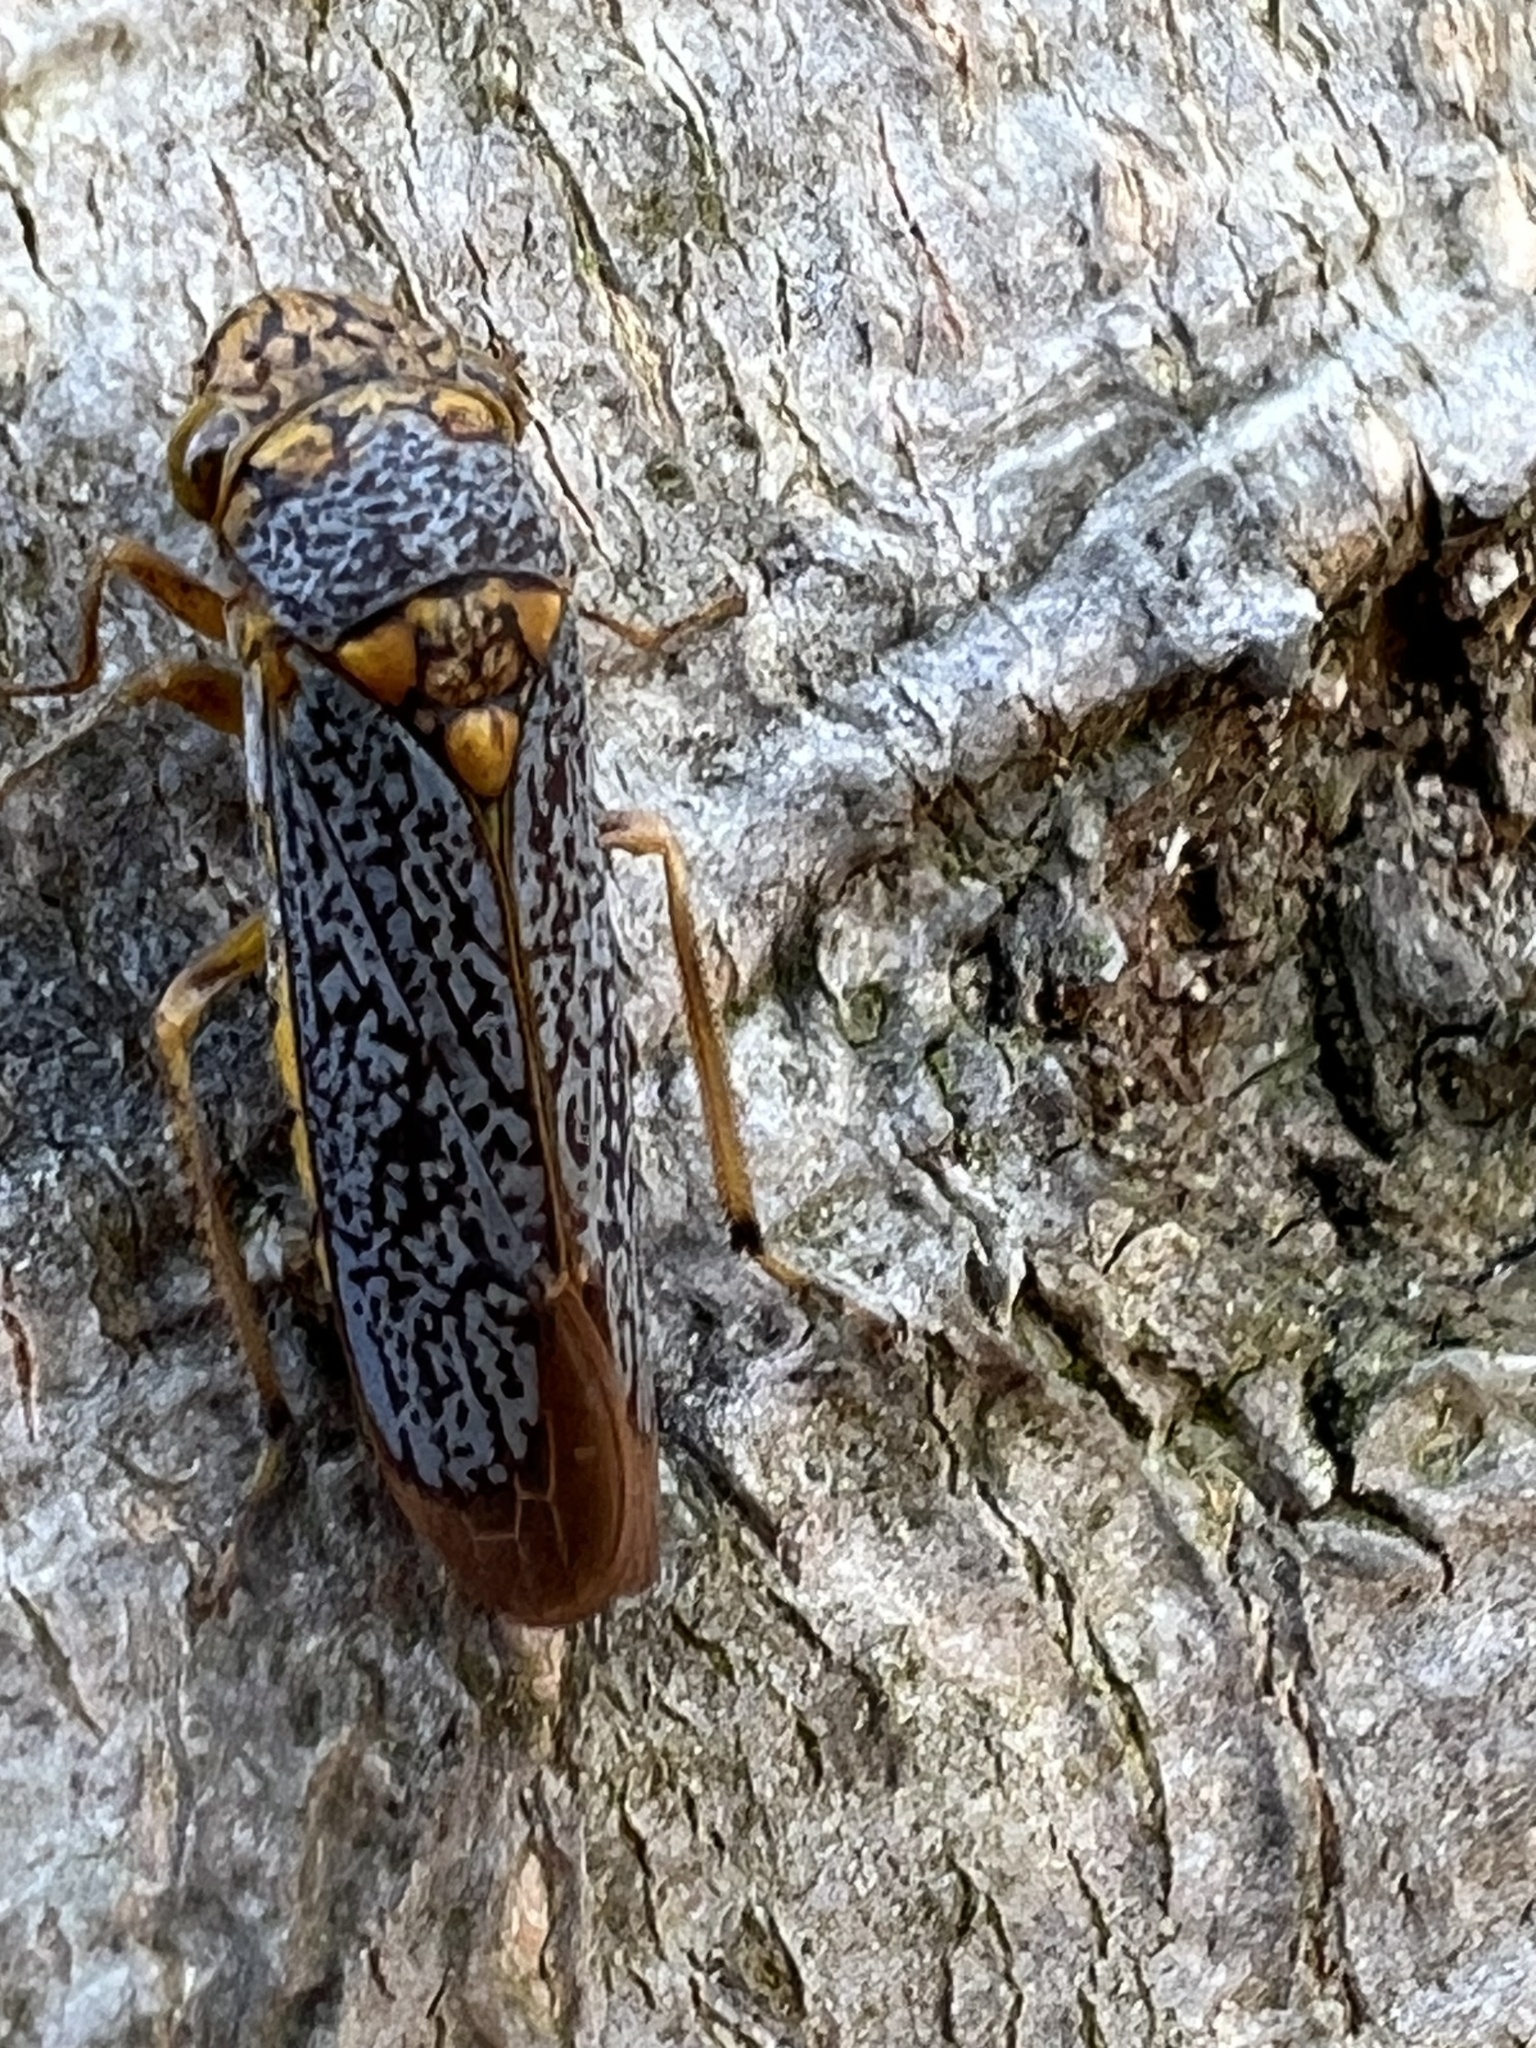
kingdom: Animalia
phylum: Arthropoda
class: Insecta
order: Hemiptera
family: Cicadellidae
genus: Oncometopia
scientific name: Oncometopia orbona
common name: Broad-headed sharpshooter
